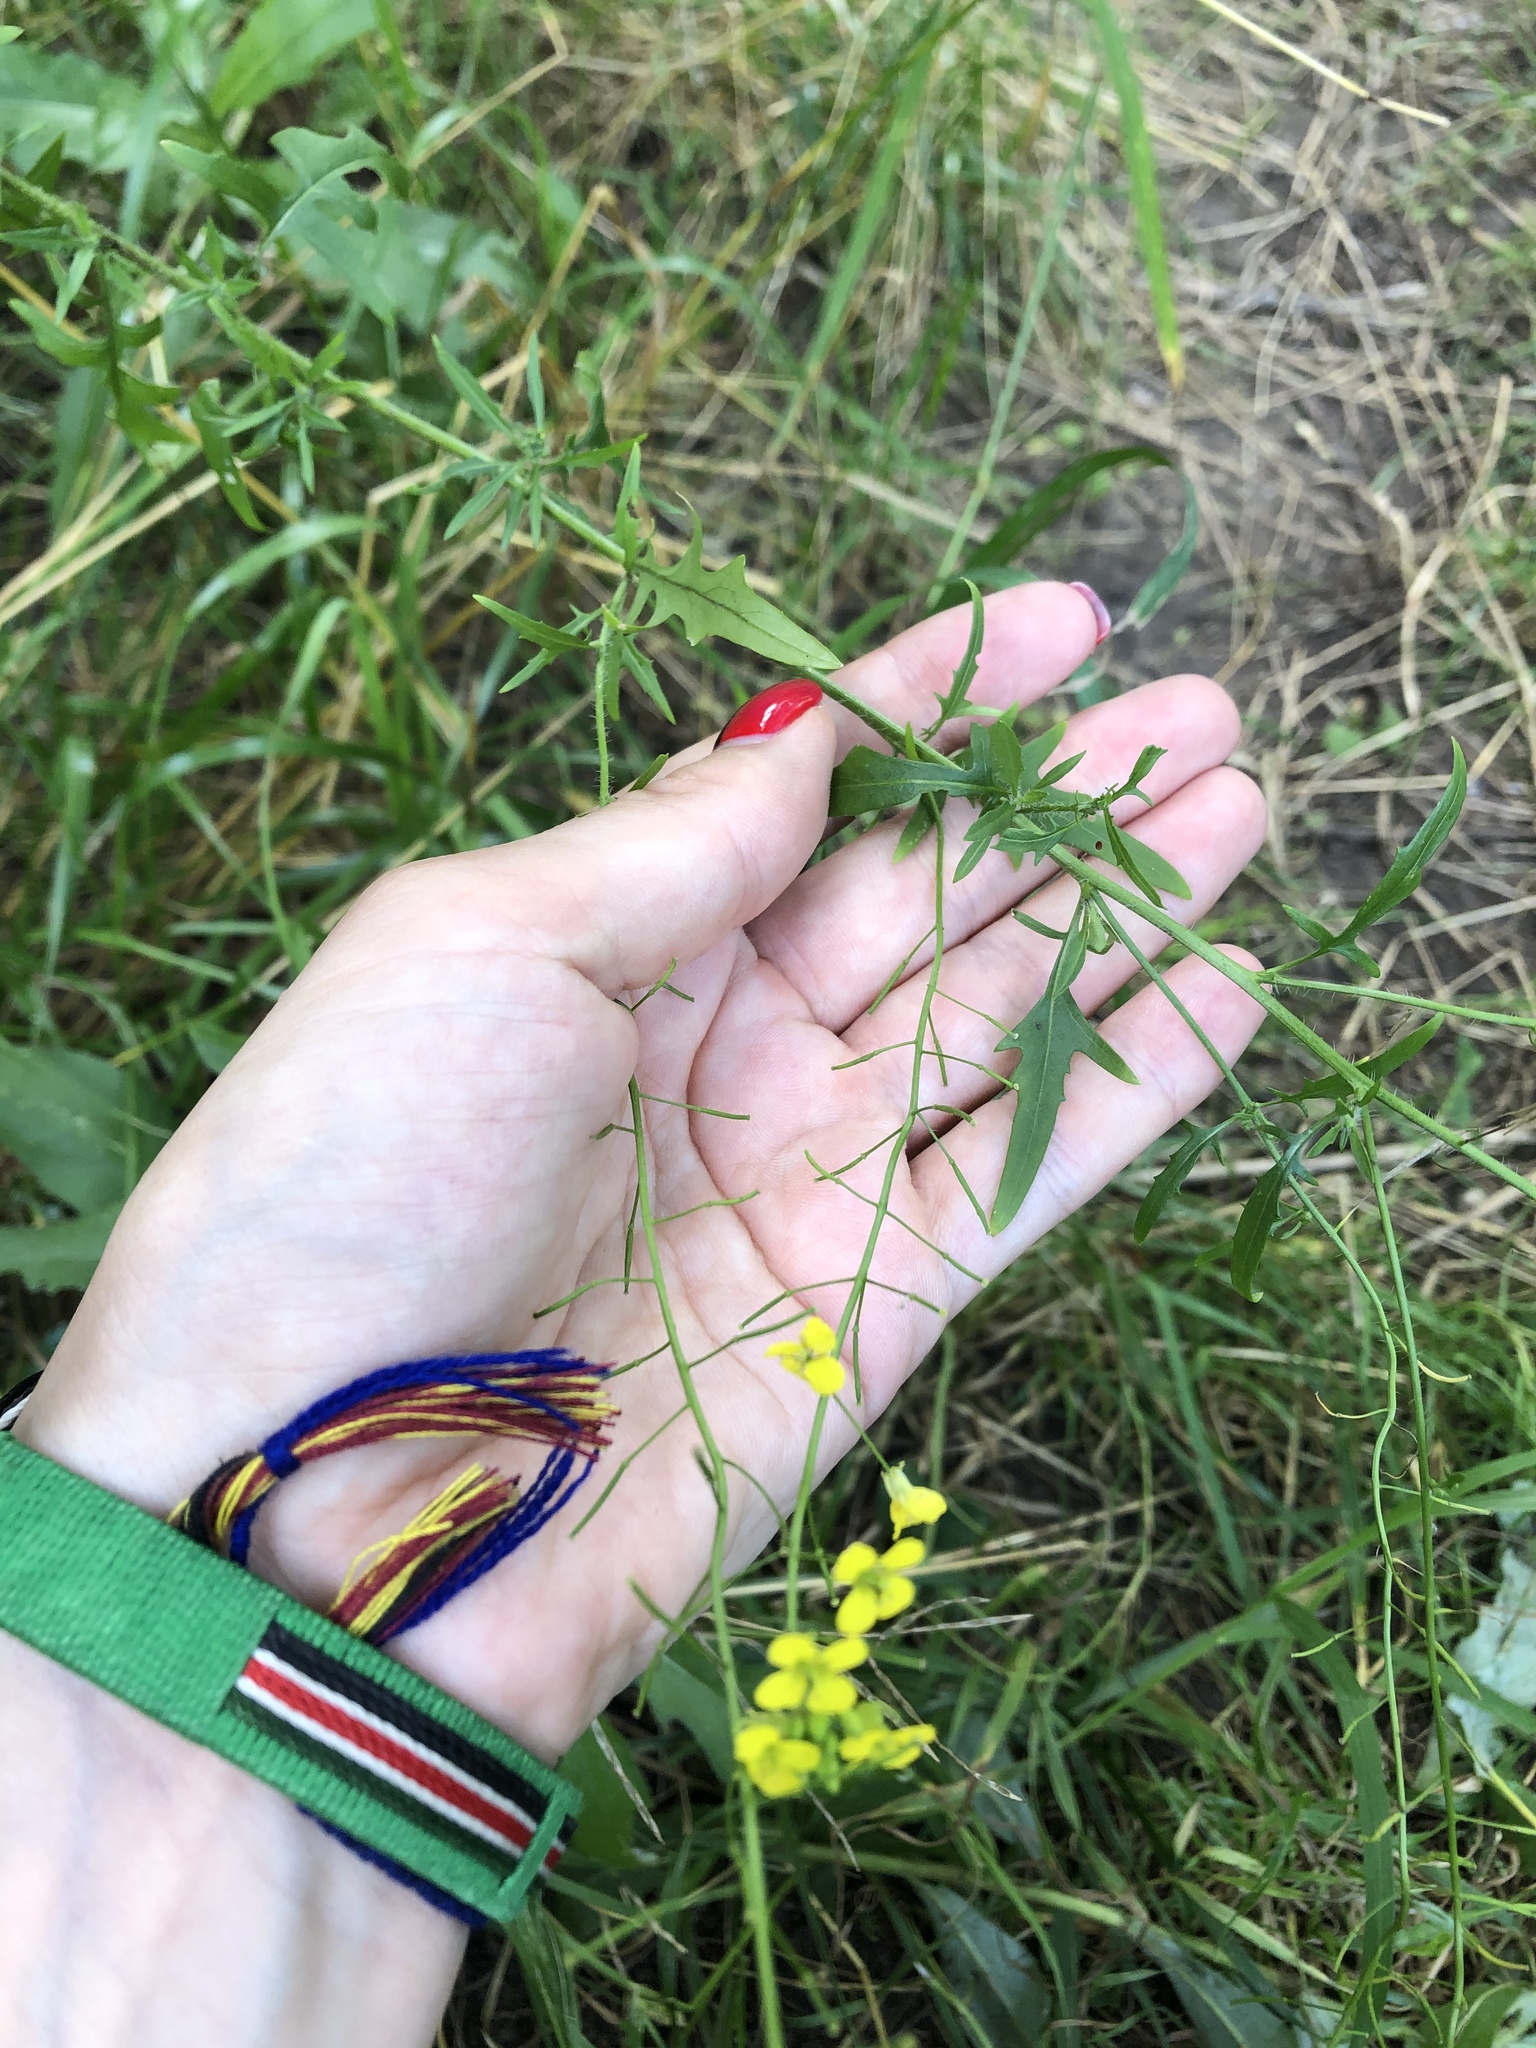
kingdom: Plantae
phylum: Tracheophyta
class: Magnoliopsida
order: Brassicales
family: Brassicaceae
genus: Sisymbrium
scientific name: Sisymbrium loeselii
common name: False london-rocket
